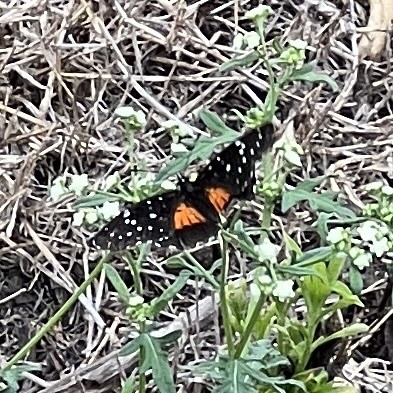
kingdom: Animalia
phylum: Arthropoda
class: Insecta
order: Lepidoptera
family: Nymphalidae
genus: Chlosyne
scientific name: Chlosyne janais
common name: Crimson patch
